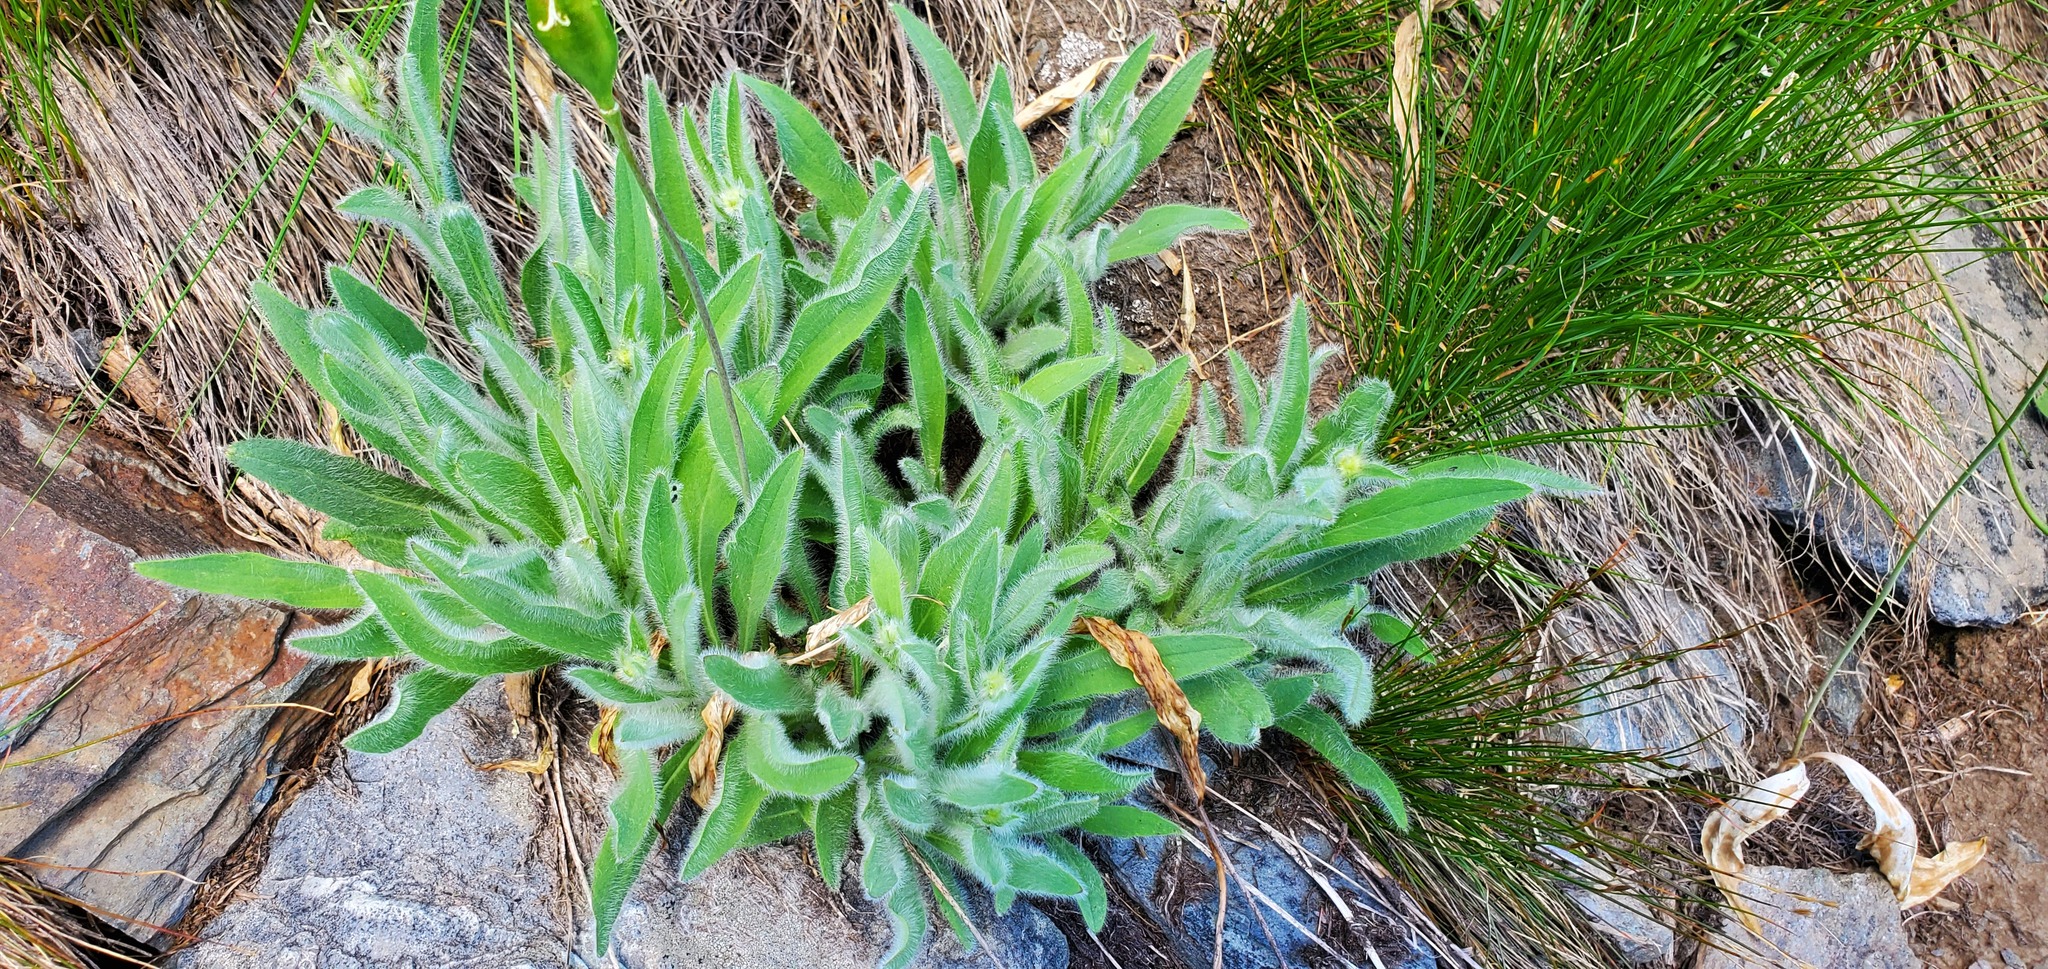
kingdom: Plantae
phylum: Tracheophyta
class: Magnoliopsida
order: Asterales
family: Asteraceae
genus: Hieracium
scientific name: Hieracium scouleri
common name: Hound's-tongue hawkweed
